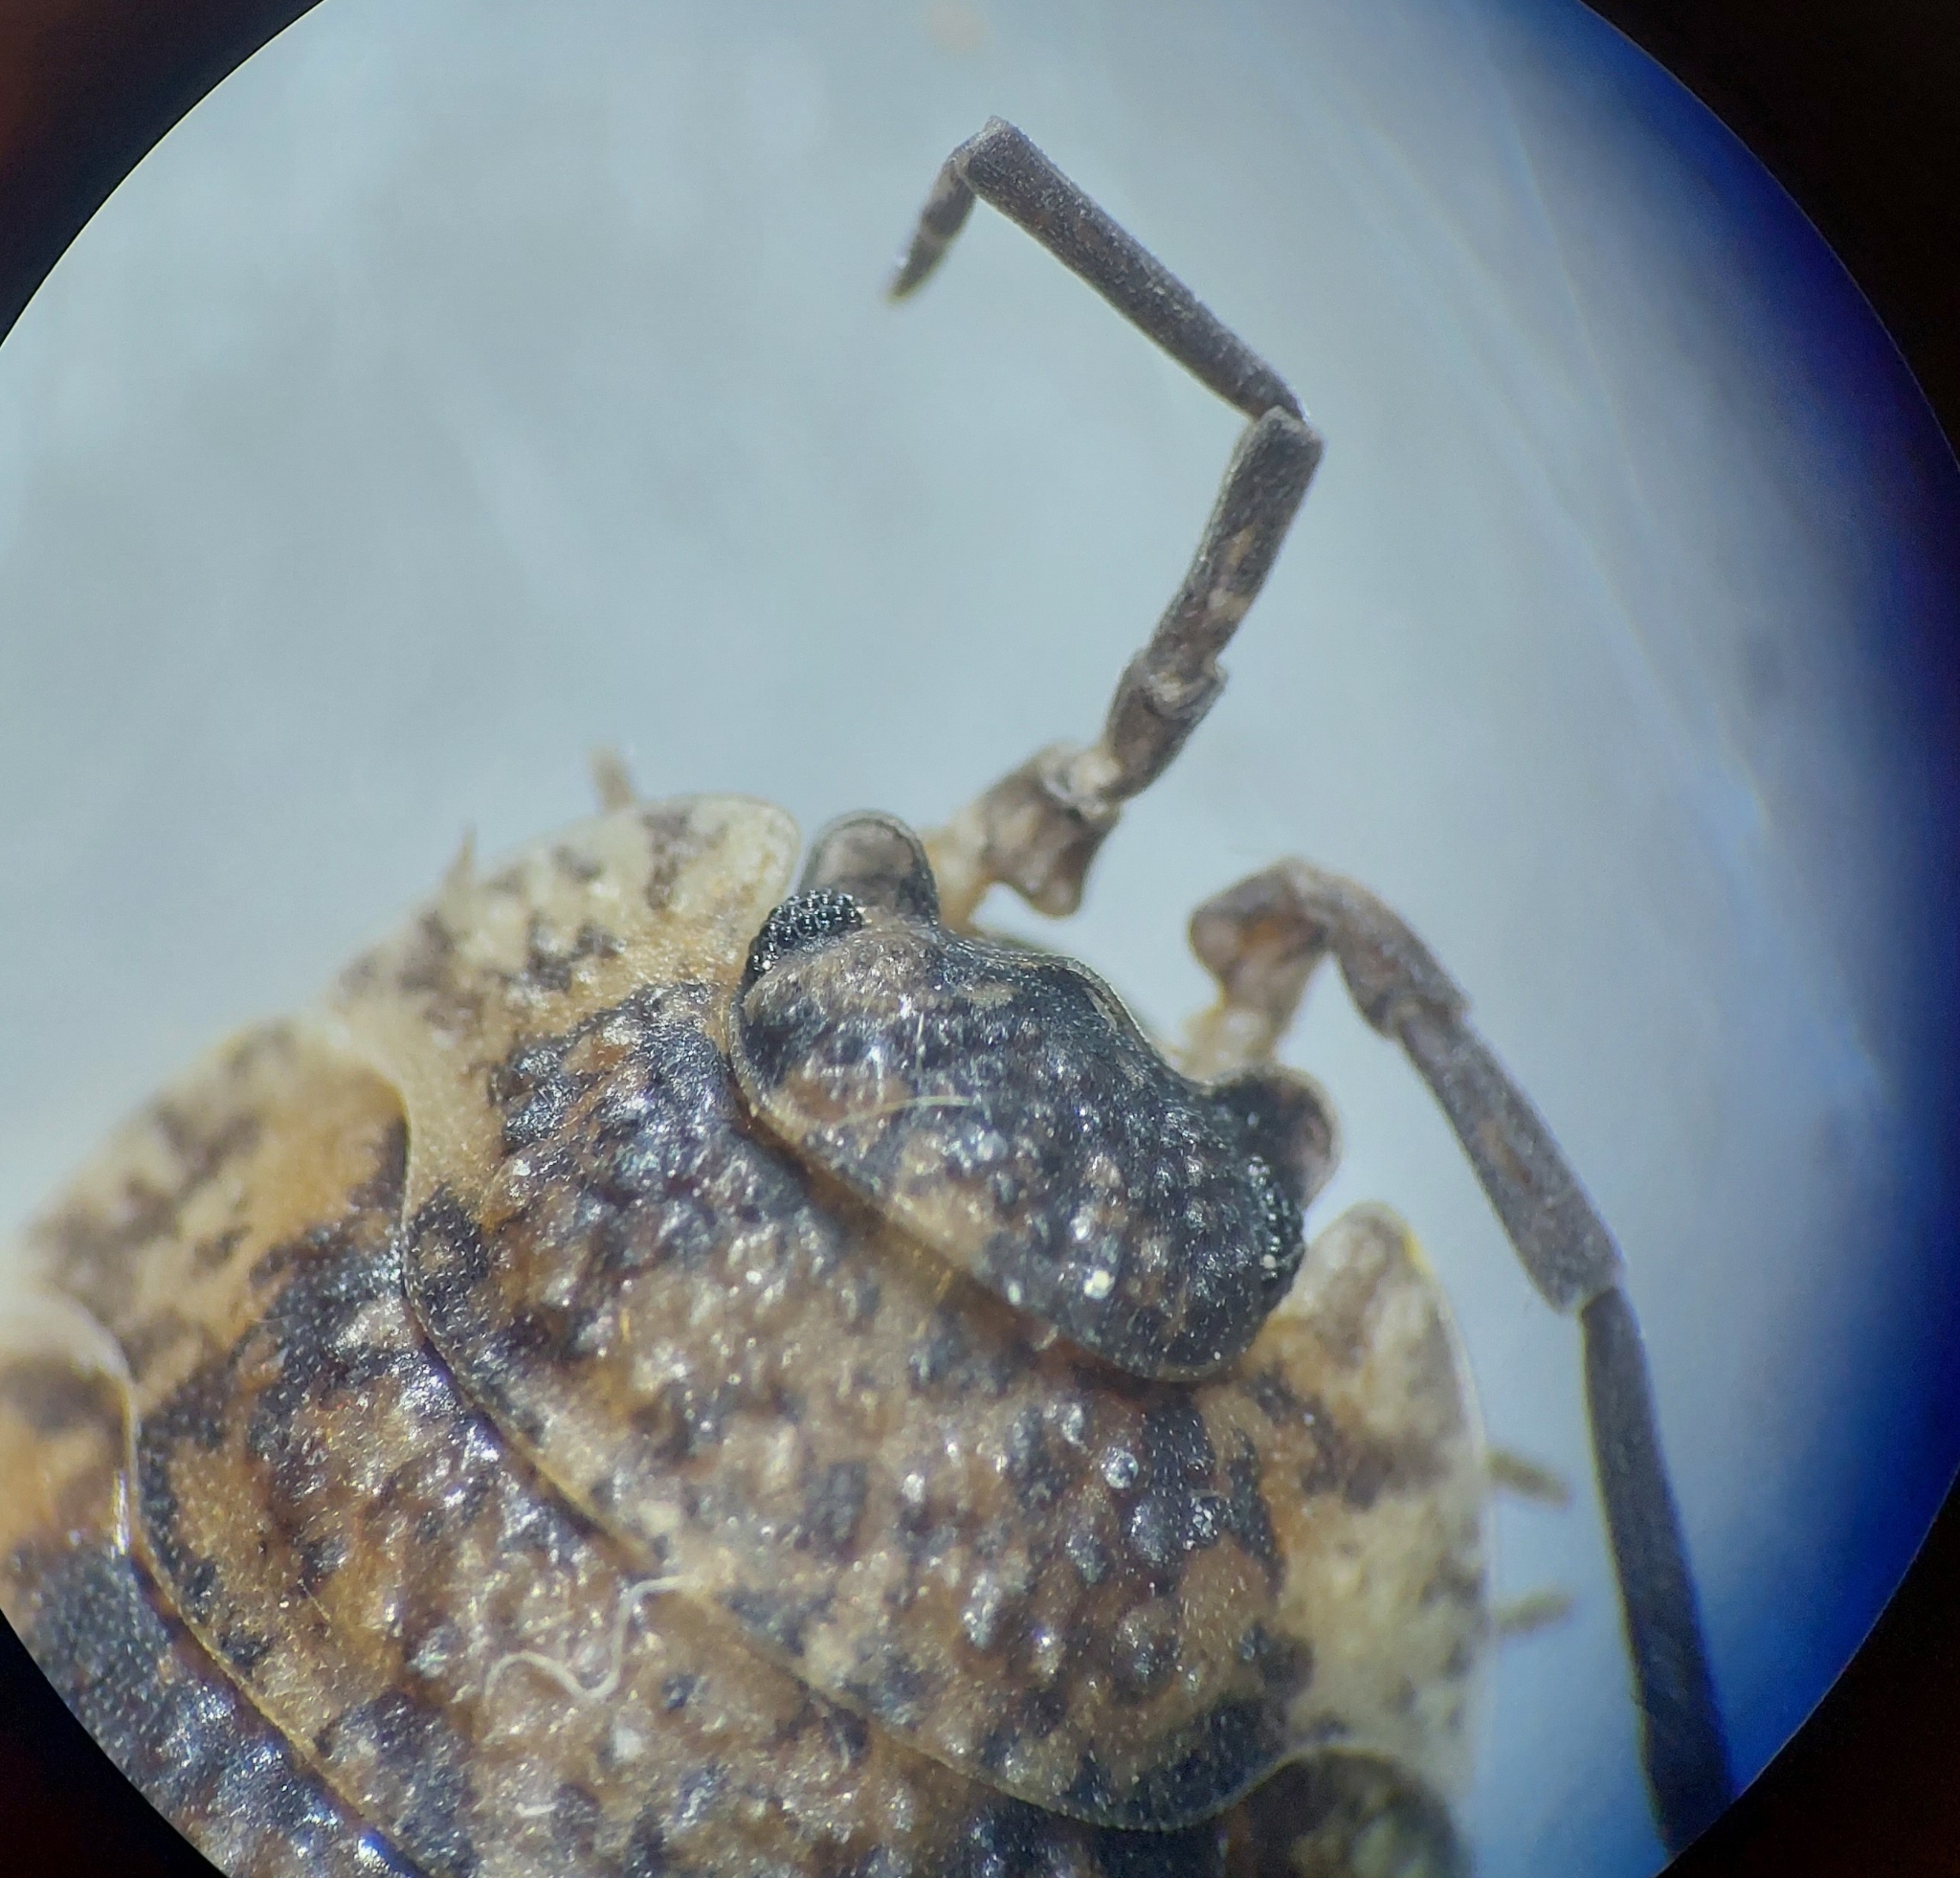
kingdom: Animalia
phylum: Arthropoda
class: Malacostraca
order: Isopoda
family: Porcellionidae
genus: Porcellio
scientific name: Porcellio scaber
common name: Common rough woodlouse
